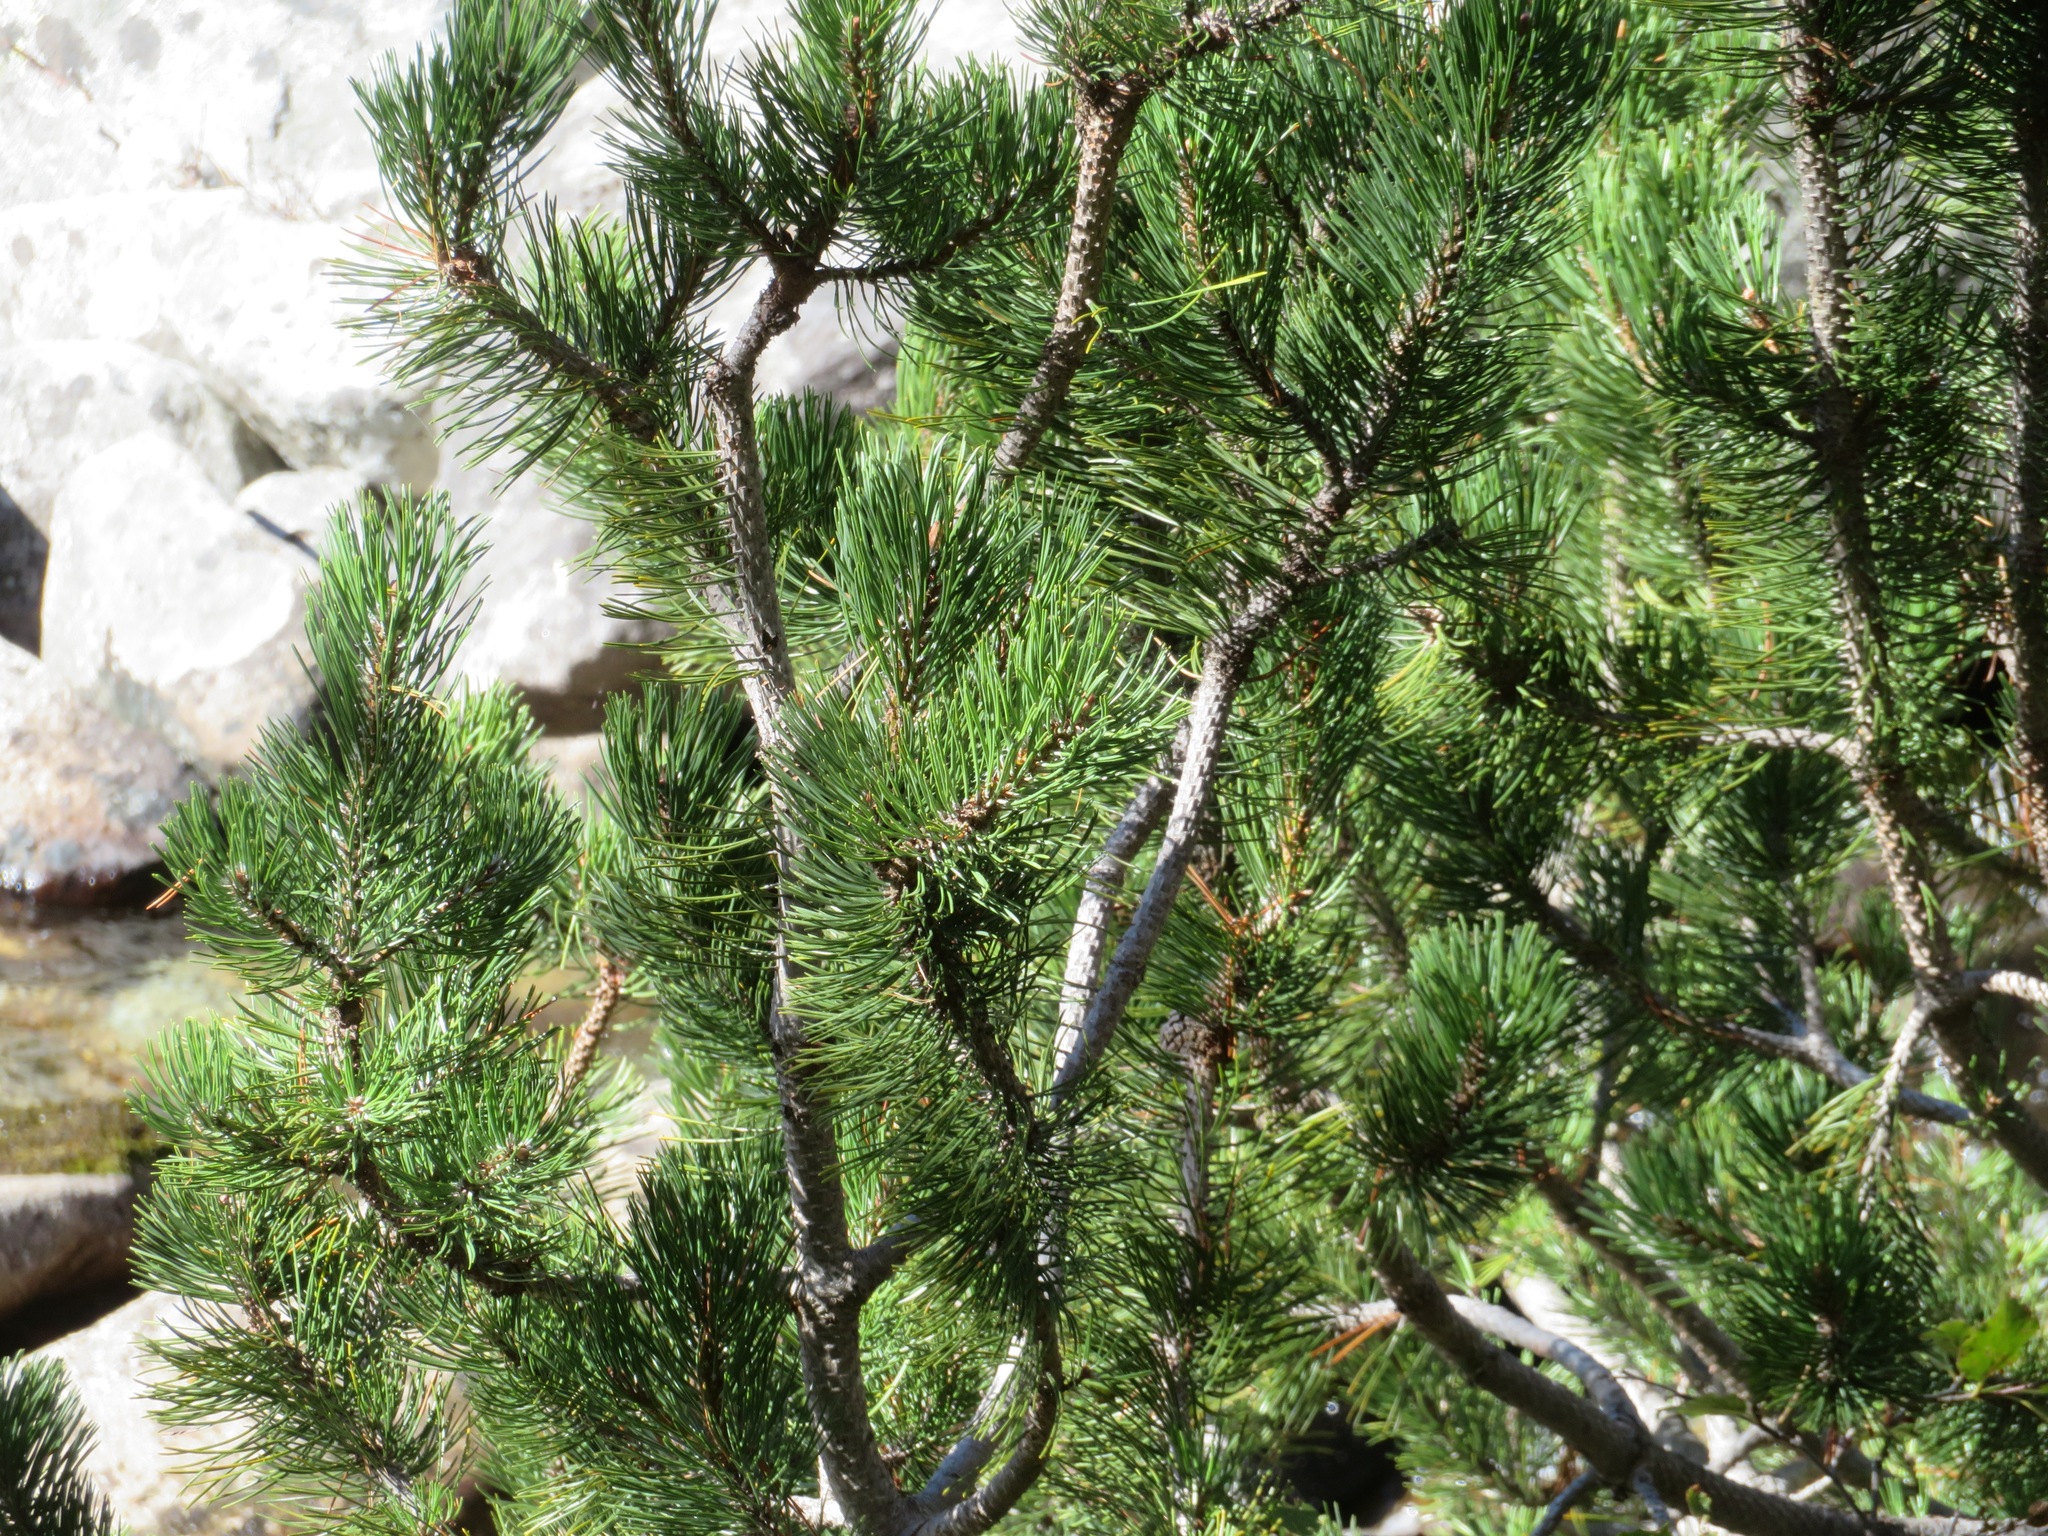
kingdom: Plantae
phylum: Tracheophyta
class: Pinopsida
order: Pinales
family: Pinaceae
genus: Pinus
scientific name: Pinus mugo
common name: Mugo pine
